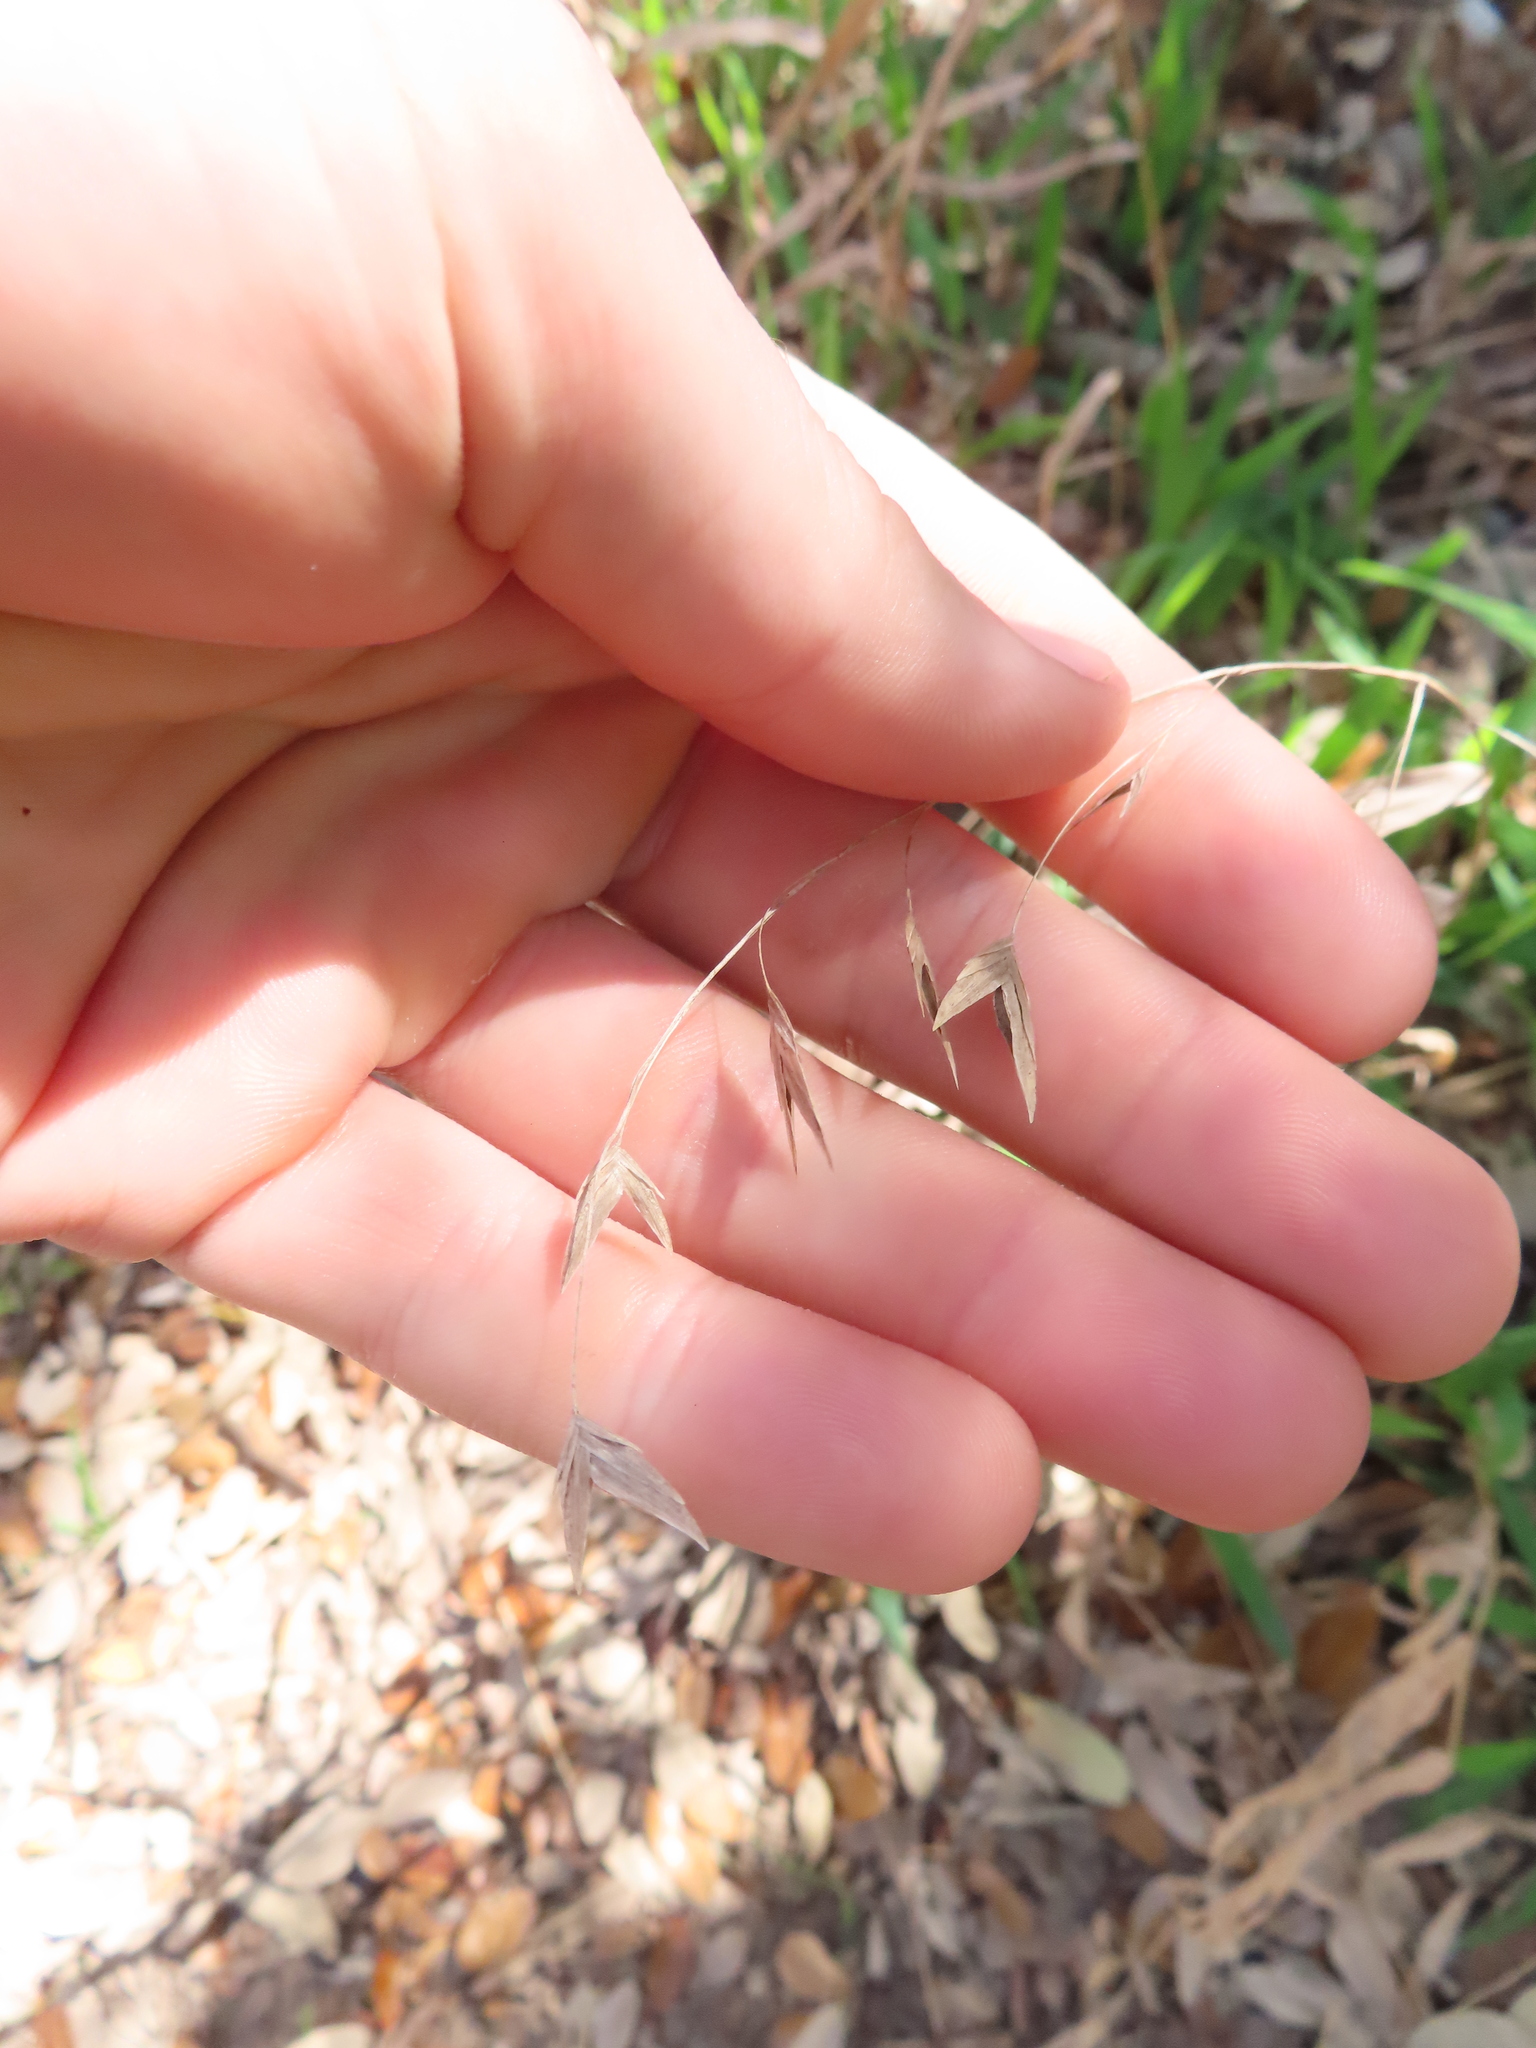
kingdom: Plantae
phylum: Tracheophyta
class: Liliopsida
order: Poales
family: Poaceae
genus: Chasmanthium
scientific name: Chasmanthium latifolium
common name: Broad-leaved chasmanthium
